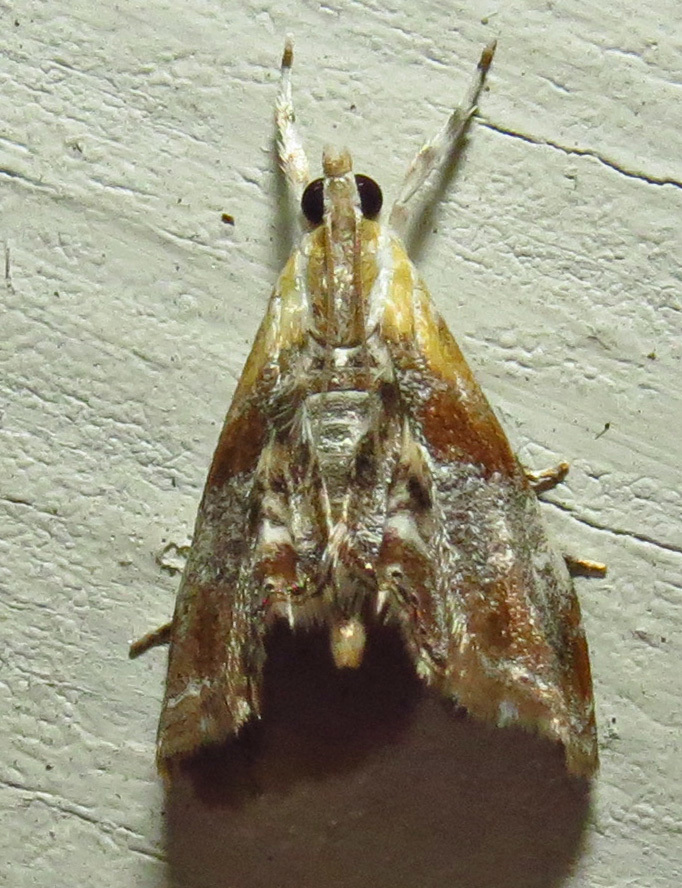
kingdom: Animalia
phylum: Arthropoda
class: Insecta
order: Lepidoptera
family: Crambidae
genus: Dicymolomia
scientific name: Dicymolomia julianalis
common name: Julia's dicymolomia moth
